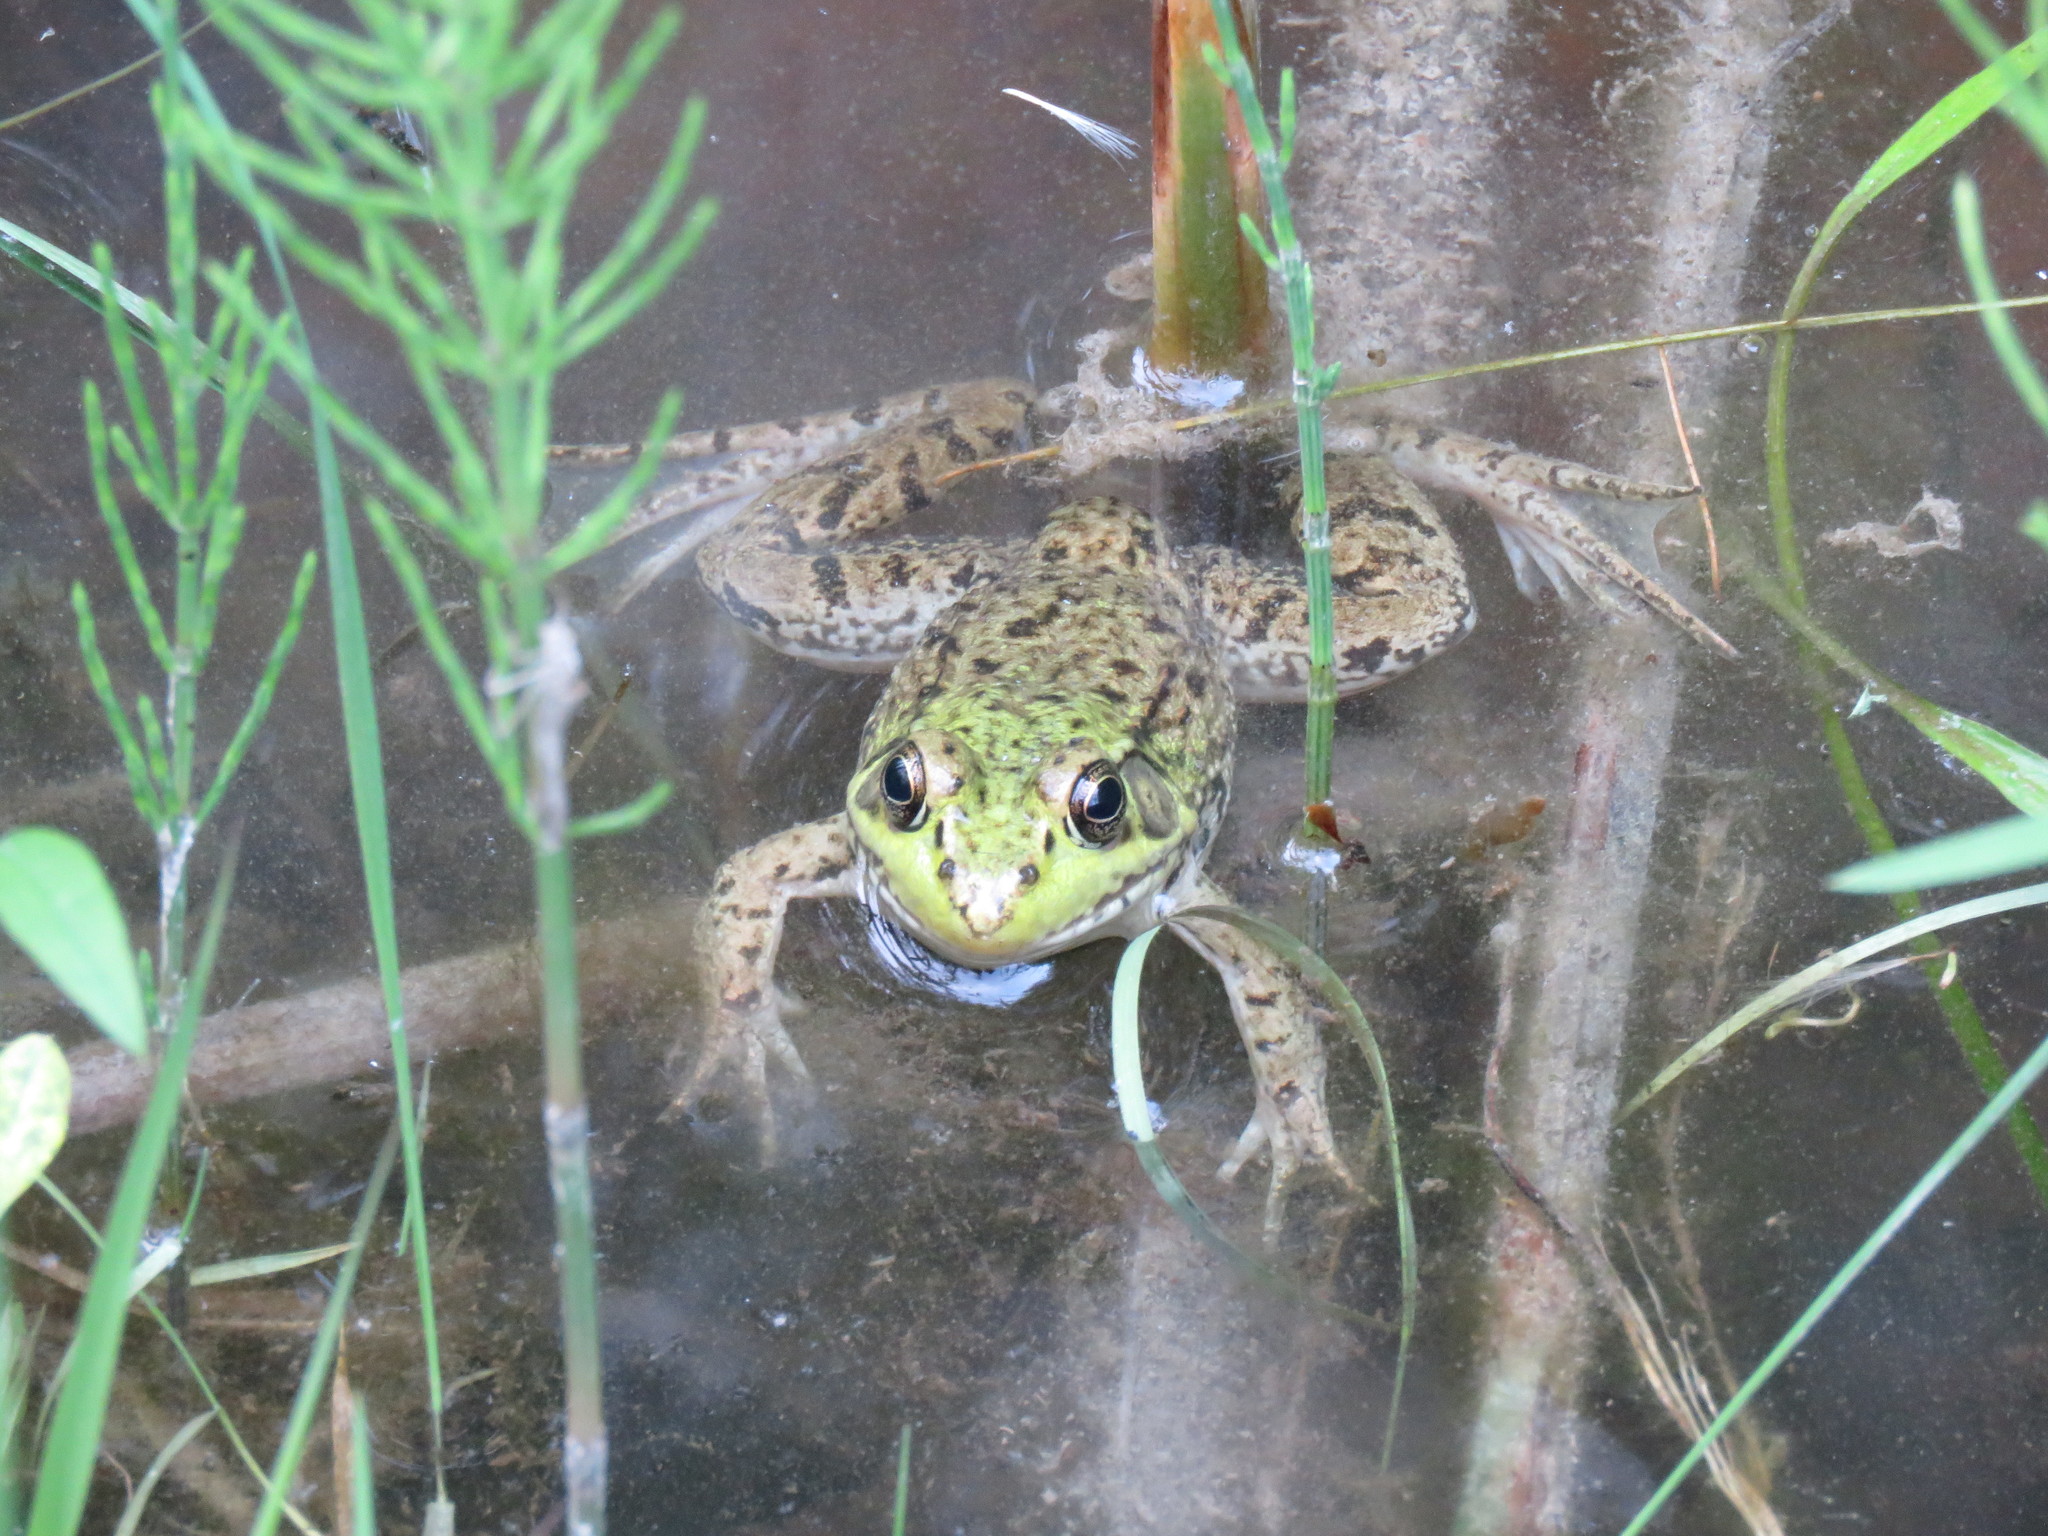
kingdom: Animalia
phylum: Chordata
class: Amphibia
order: Anura
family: Ranidae
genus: Lithobates
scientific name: Lithobates clamitans
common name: Green frog
